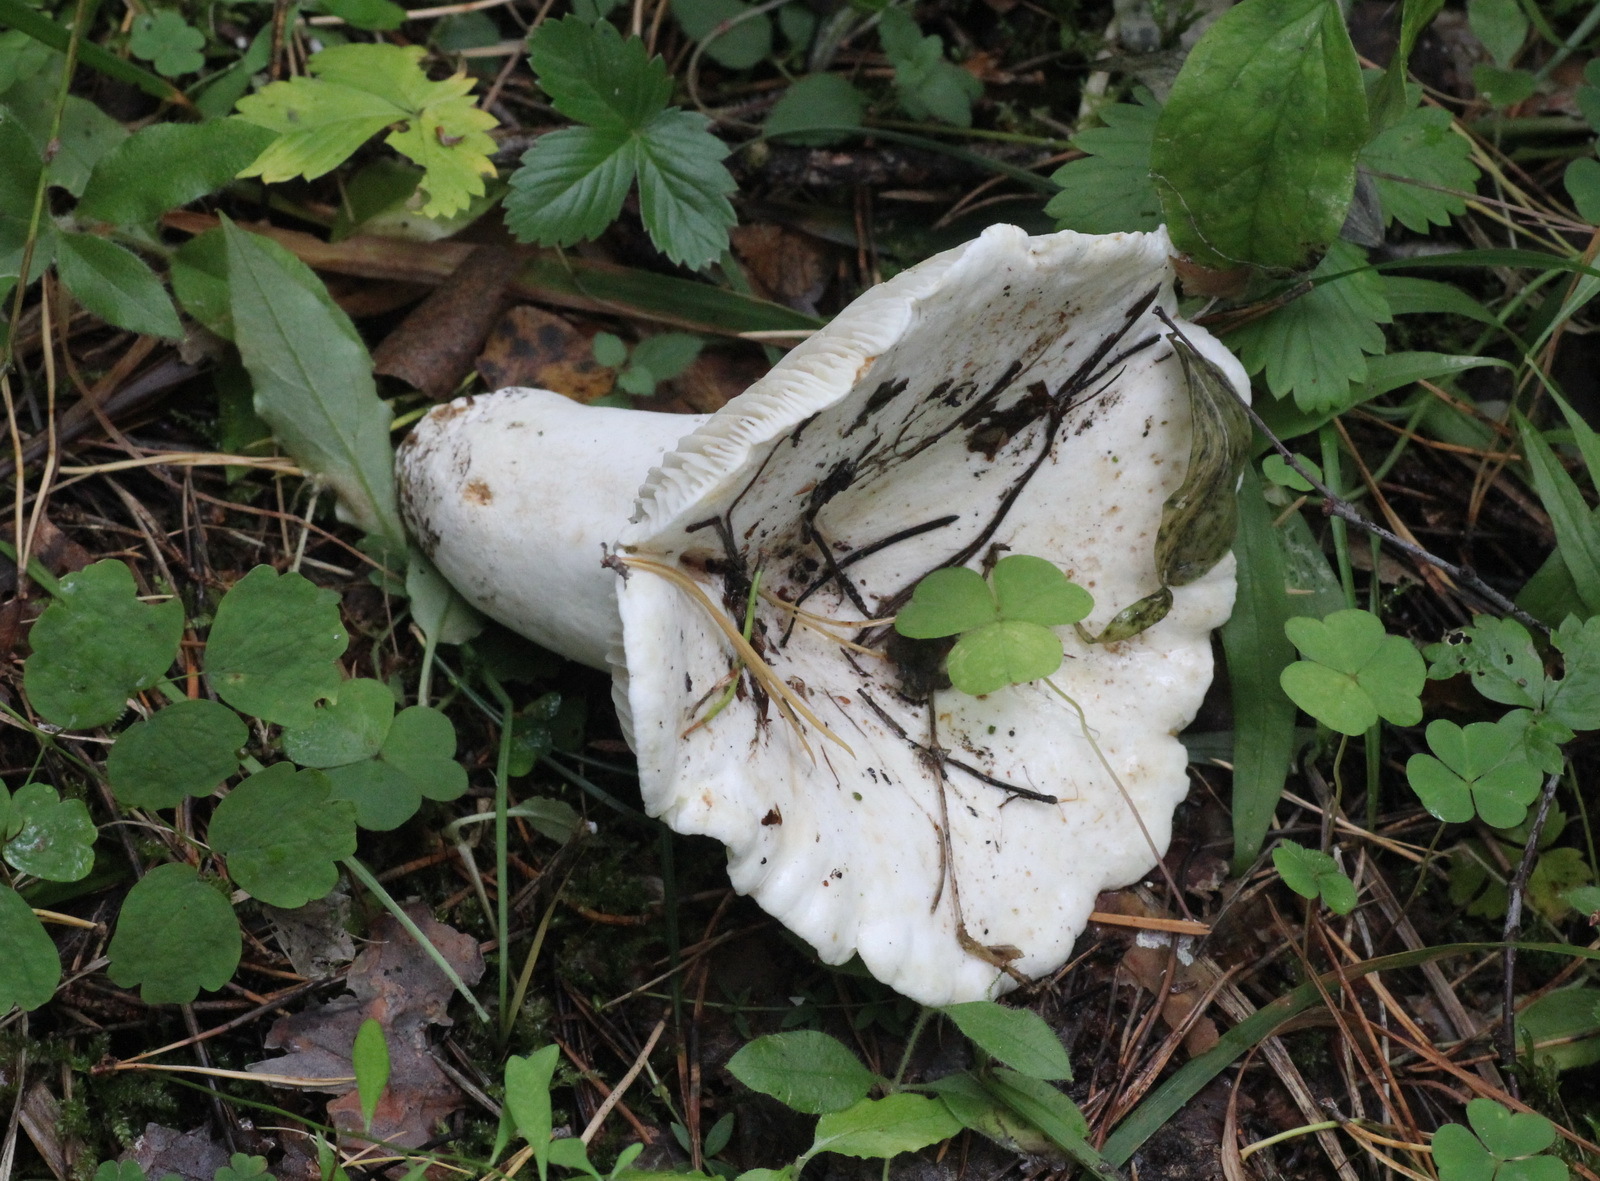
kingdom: Fungi
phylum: Basidiomycota
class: Agaricomycetes
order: Russulales
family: Russulaceae
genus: Lactifluus
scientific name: Lactifluus vellereus
